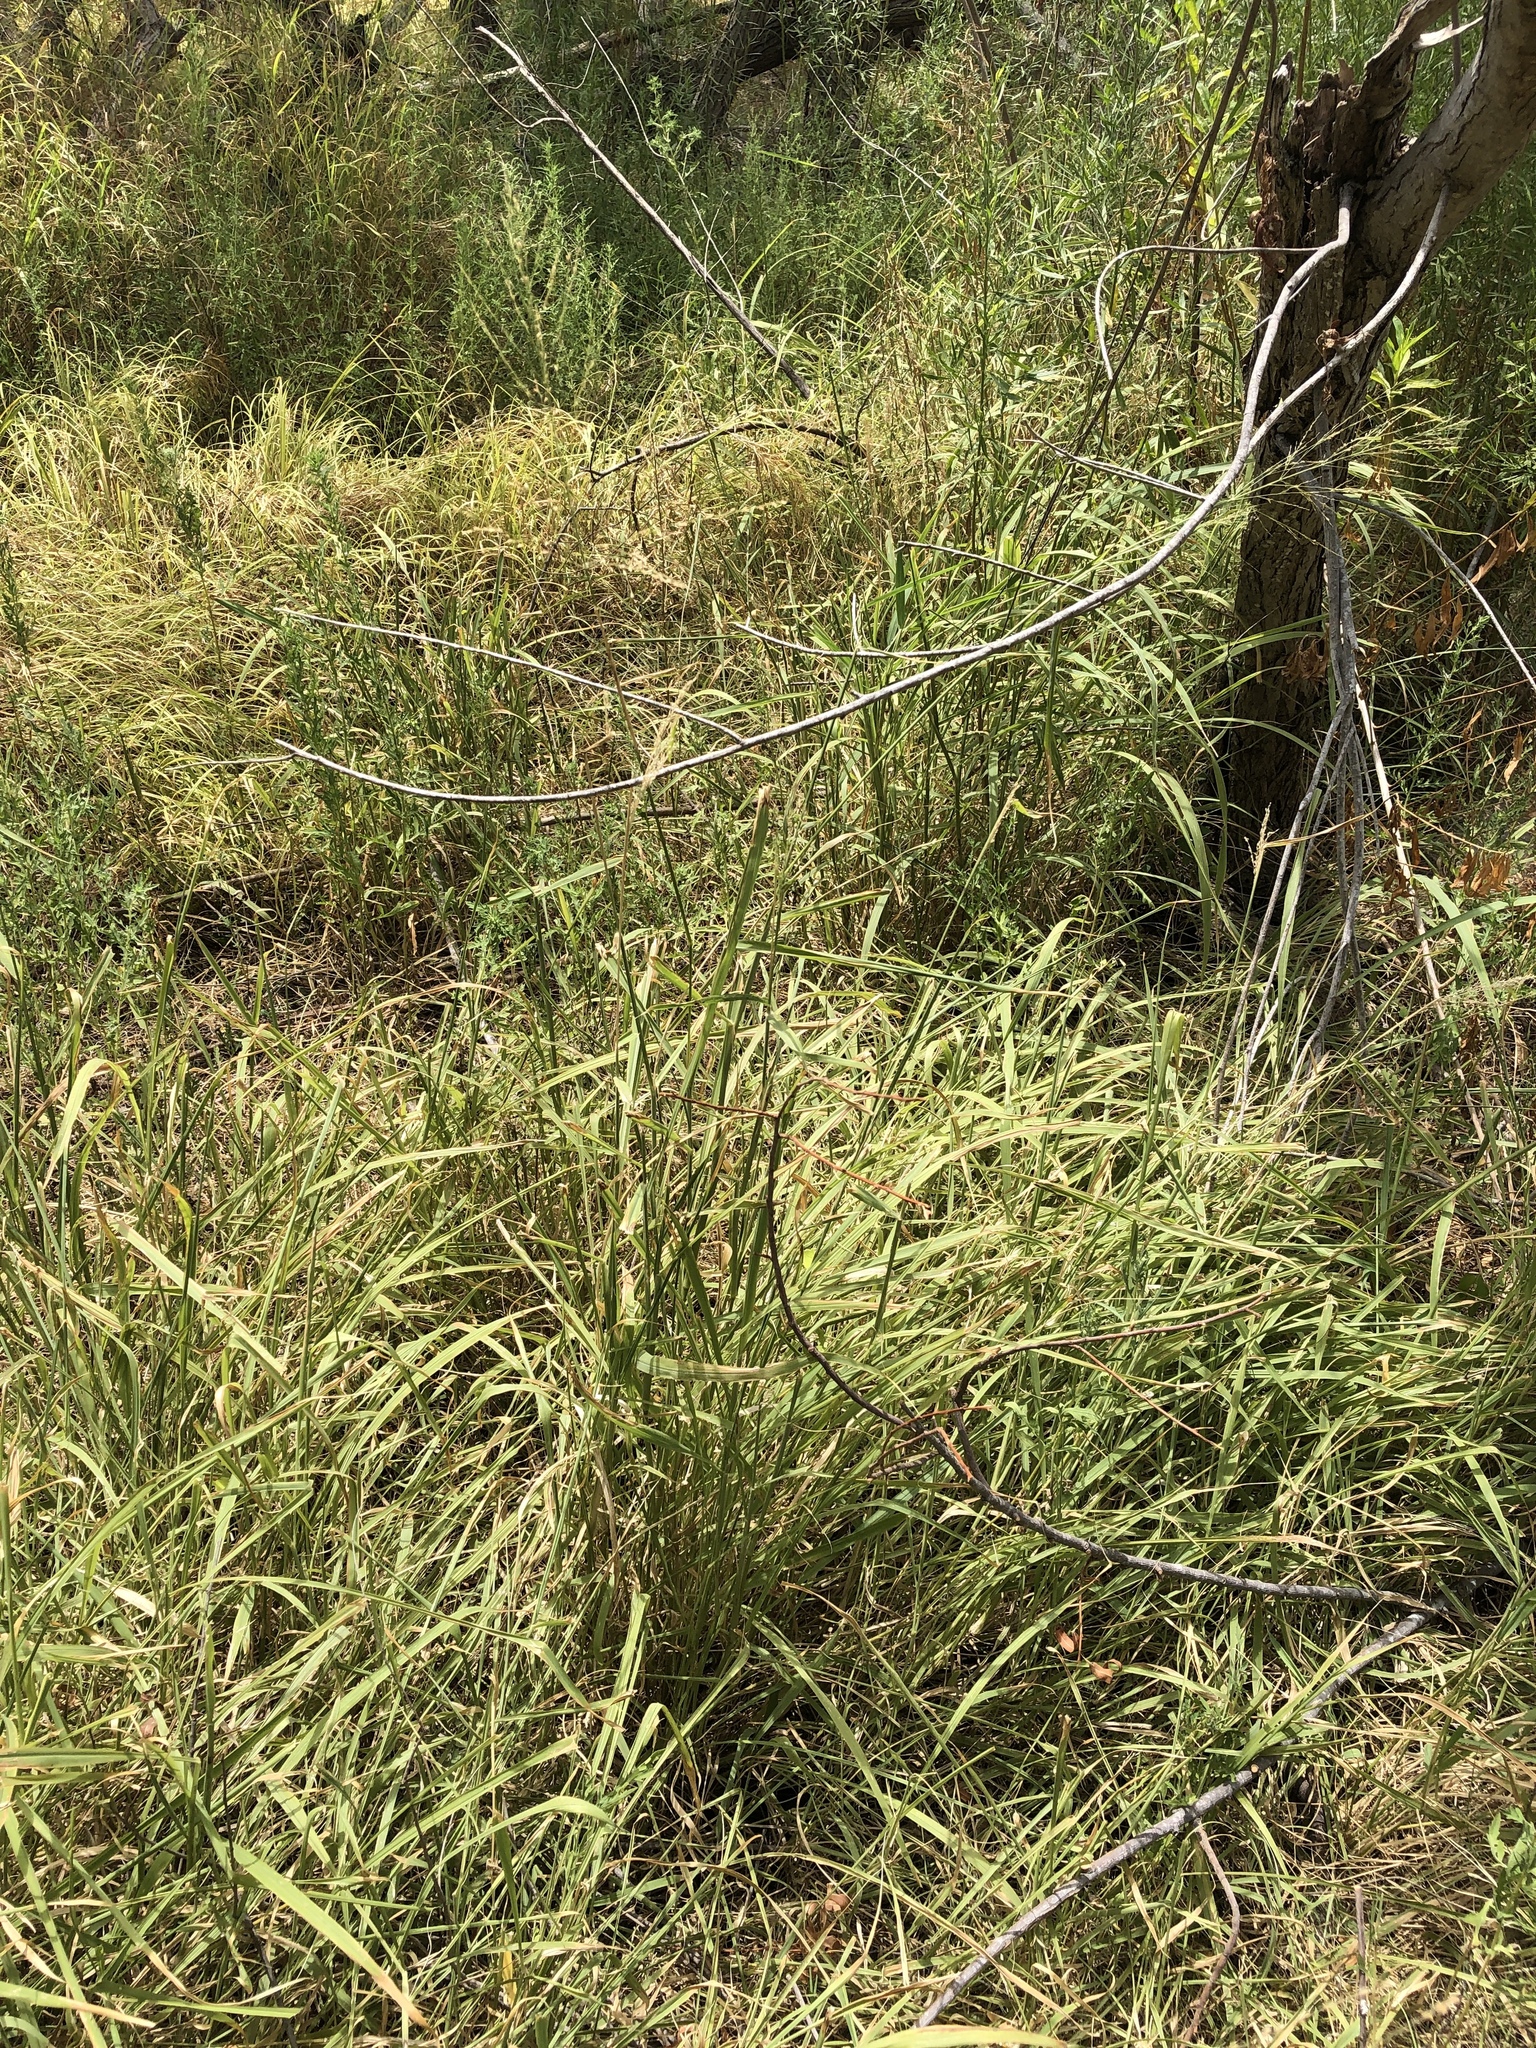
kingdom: Plantae
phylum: Tracheophyta
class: Liliopsida
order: Poales
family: Poaceae
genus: Megathyrsus
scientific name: Megathyrsus maximus
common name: Guineagrass
